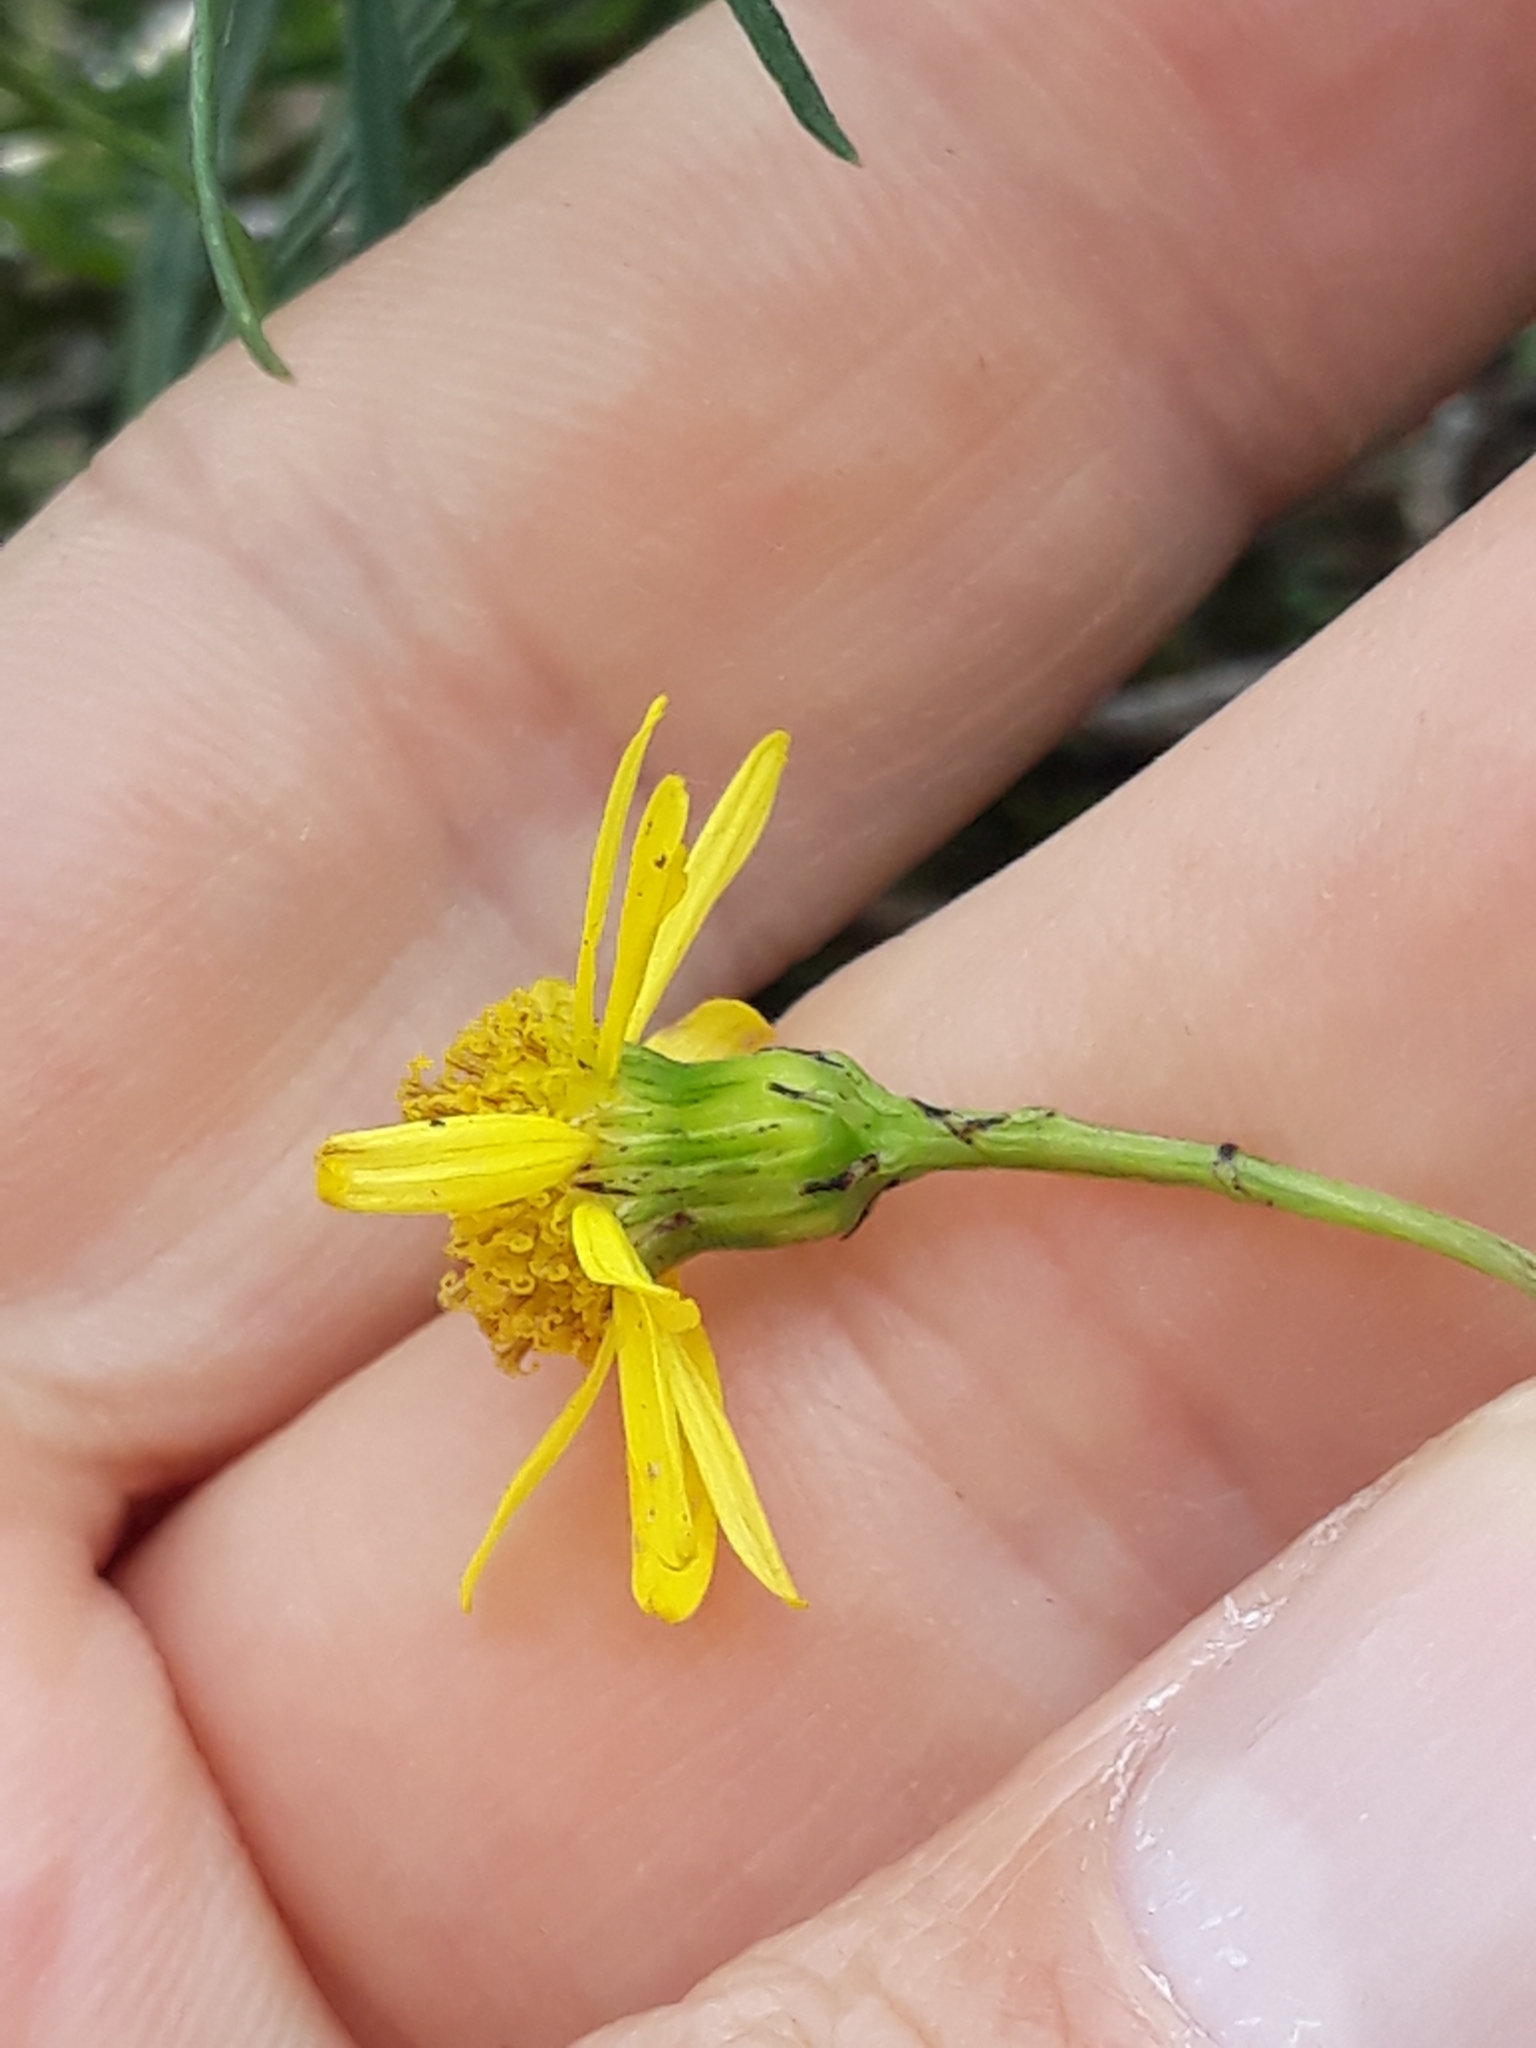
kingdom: Plantae
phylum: Tracheophyta
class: Magnoliopsida
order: Asterales
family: Asteraceae
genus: Senecio
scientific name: Senecio inaequidens
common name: Narrow-leaved ragwort
